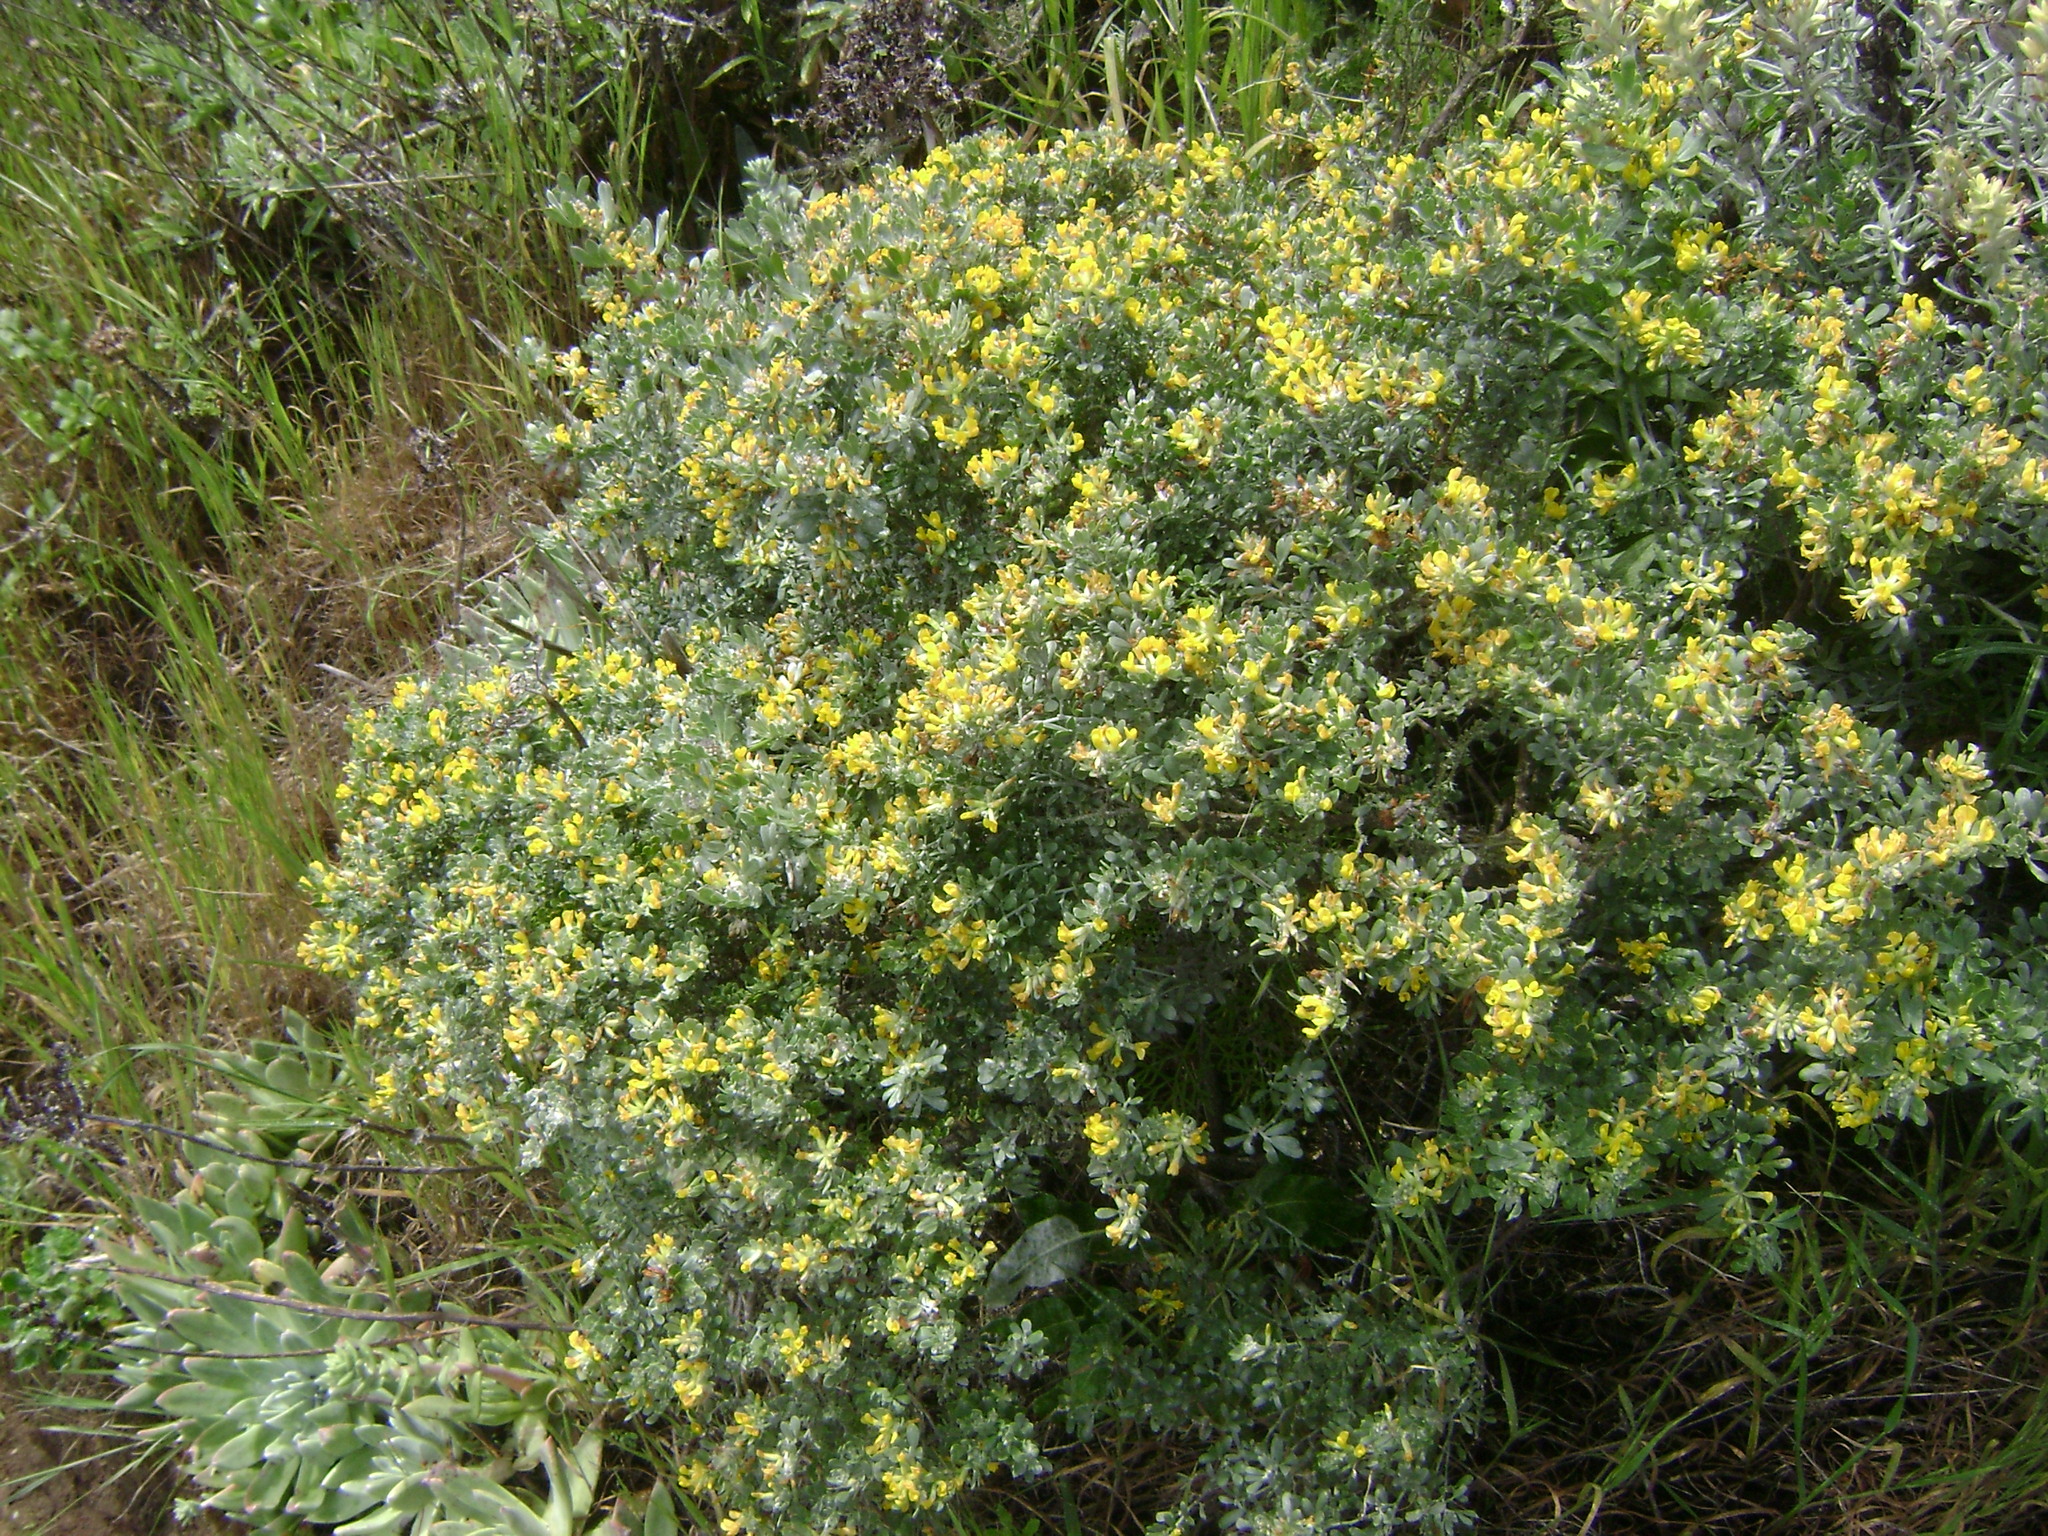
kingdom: Plantae
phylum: Tracheophyta
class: Magnoliopsida
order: Fabales
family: Fabaceae
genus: Acmispon
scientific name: Acmispon dendroideus
